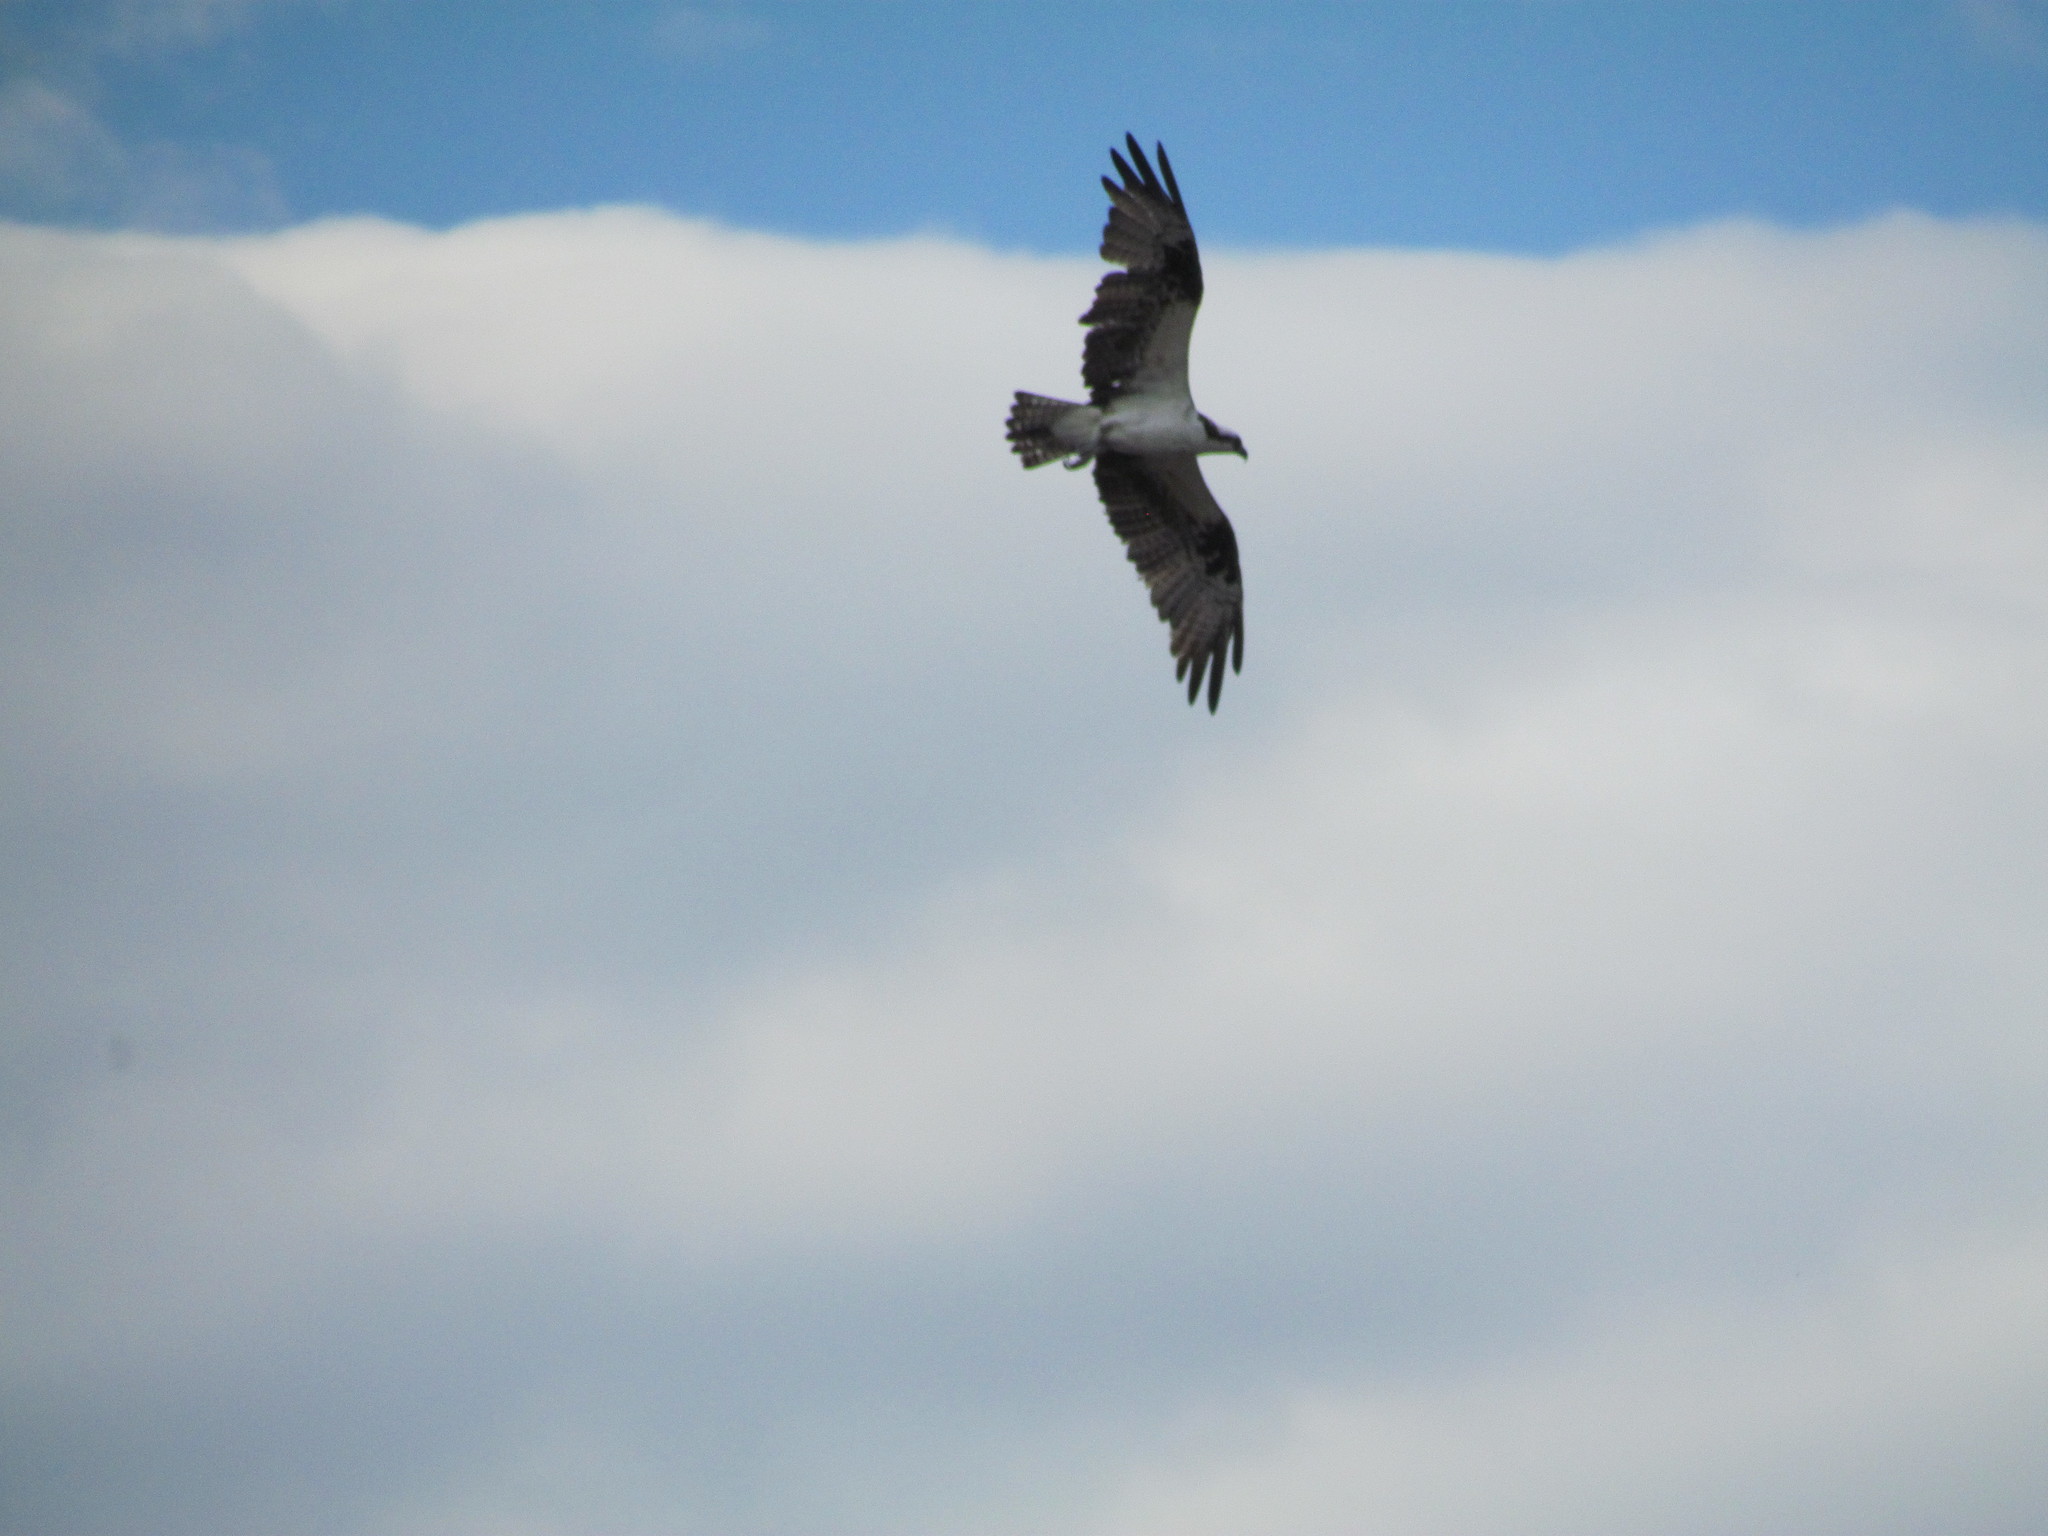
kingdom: Animalia
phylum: Chordata
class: Aves
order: Accipitriformes
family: Pandionidae
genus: Pandion
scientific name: Pandion haliaetus
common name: Osprey
